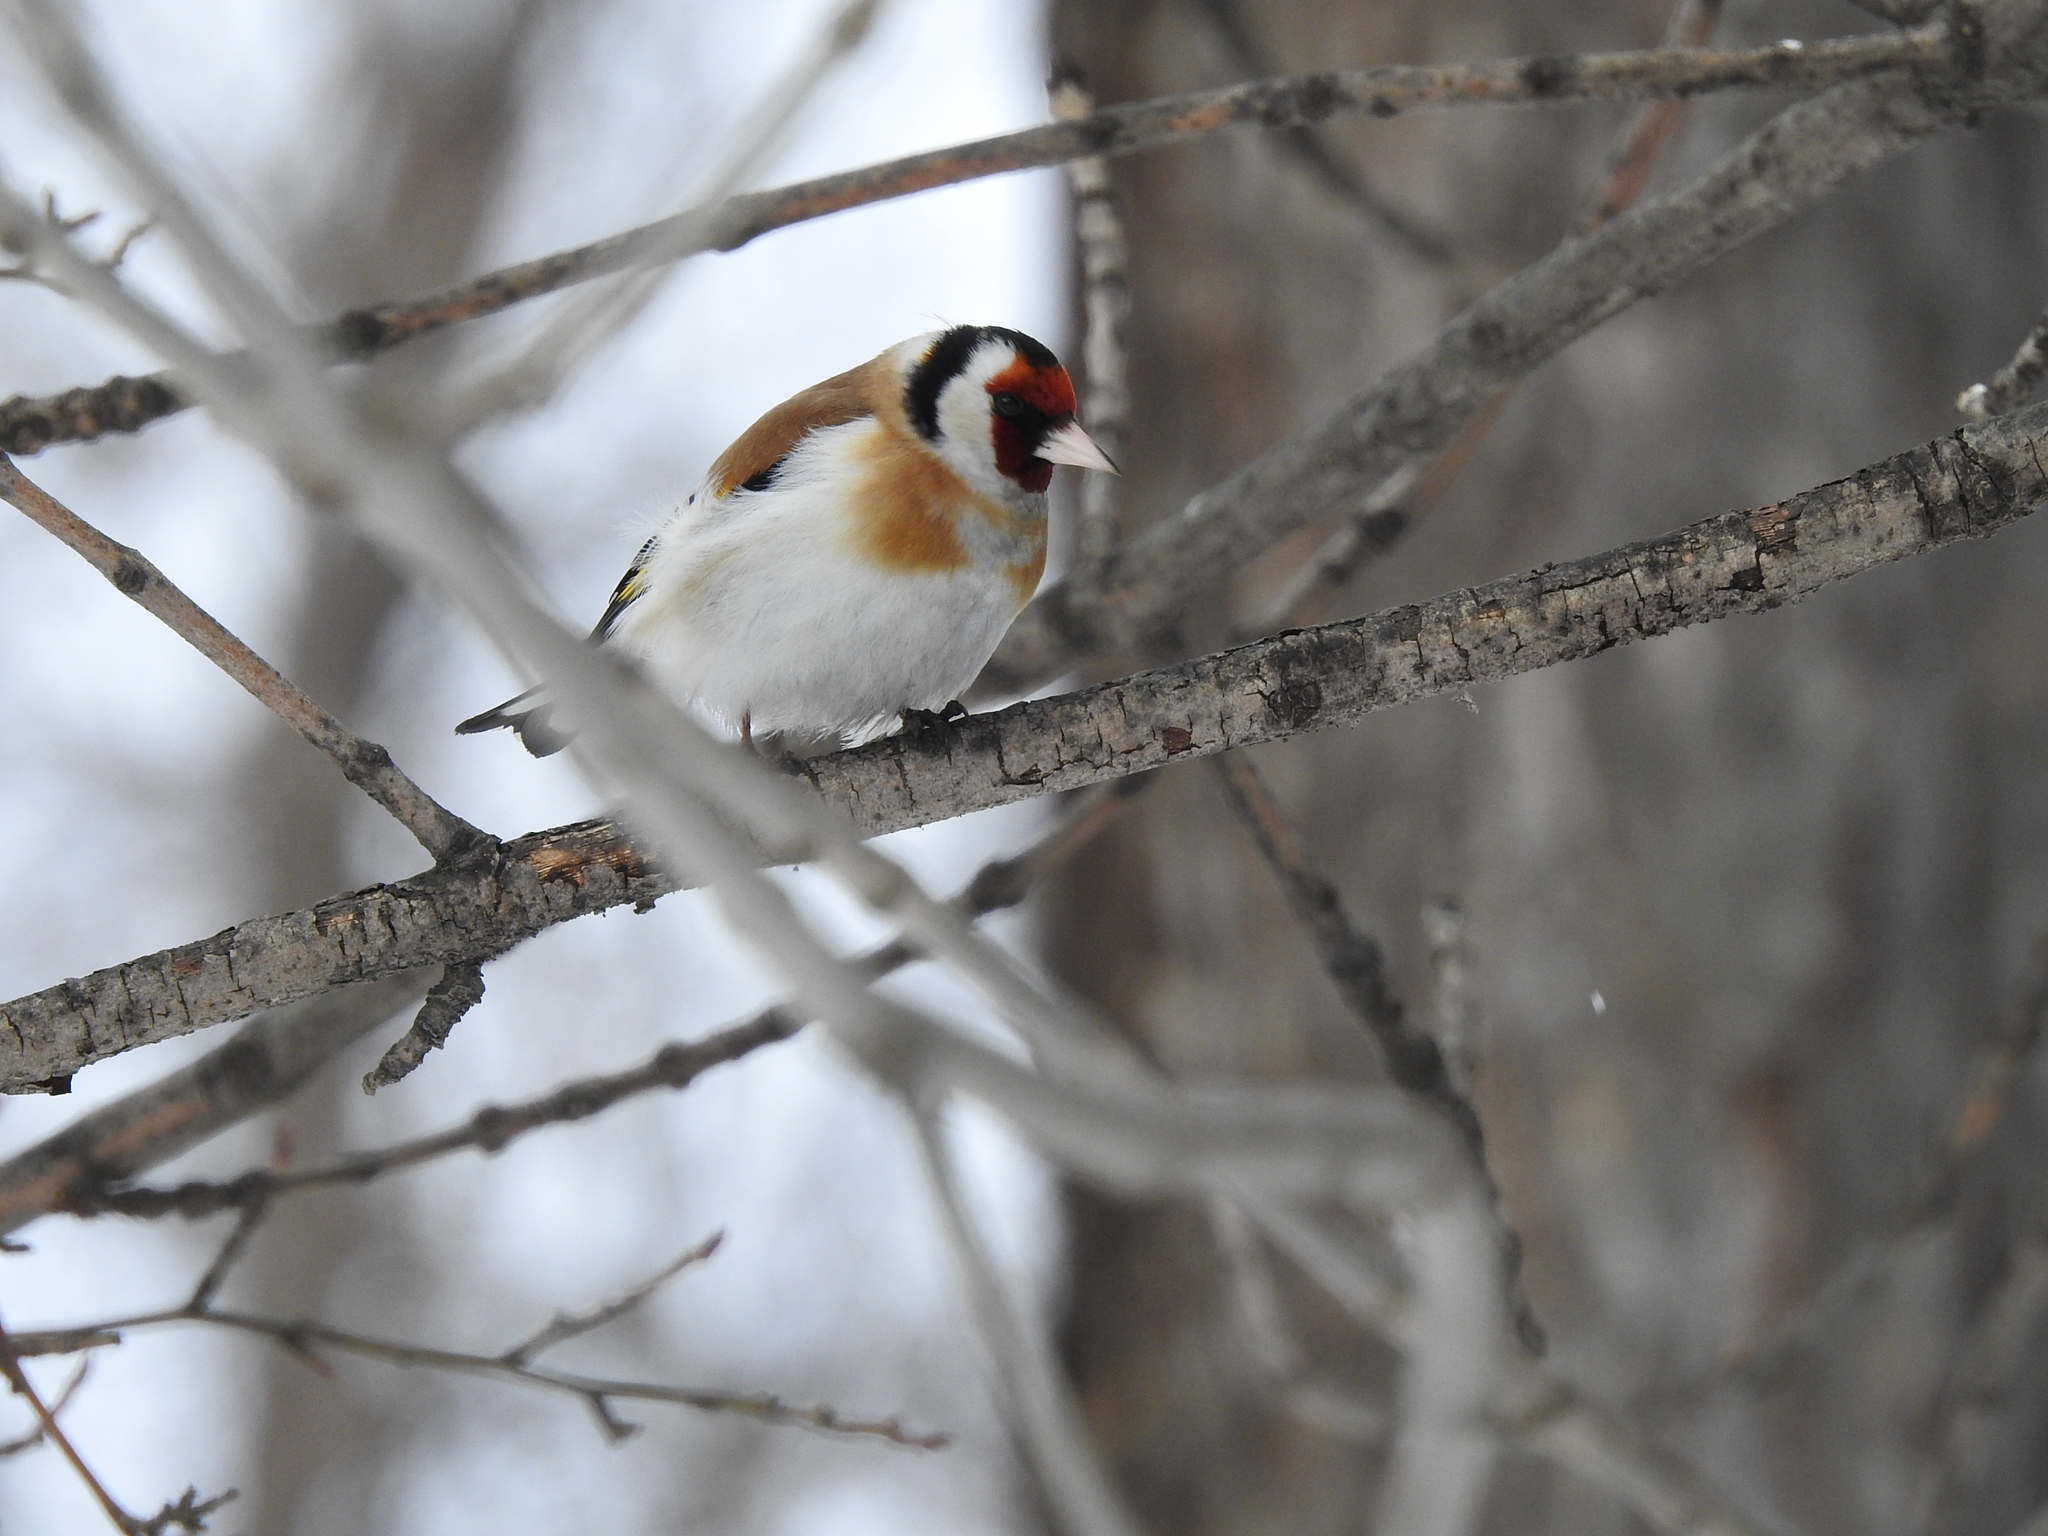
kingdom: Animalia
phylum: Chordata
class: Aves
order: Passeriformes
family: Fringillidae
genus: Carduelis
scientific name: Carduelis carduelis
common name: European goldfinch
